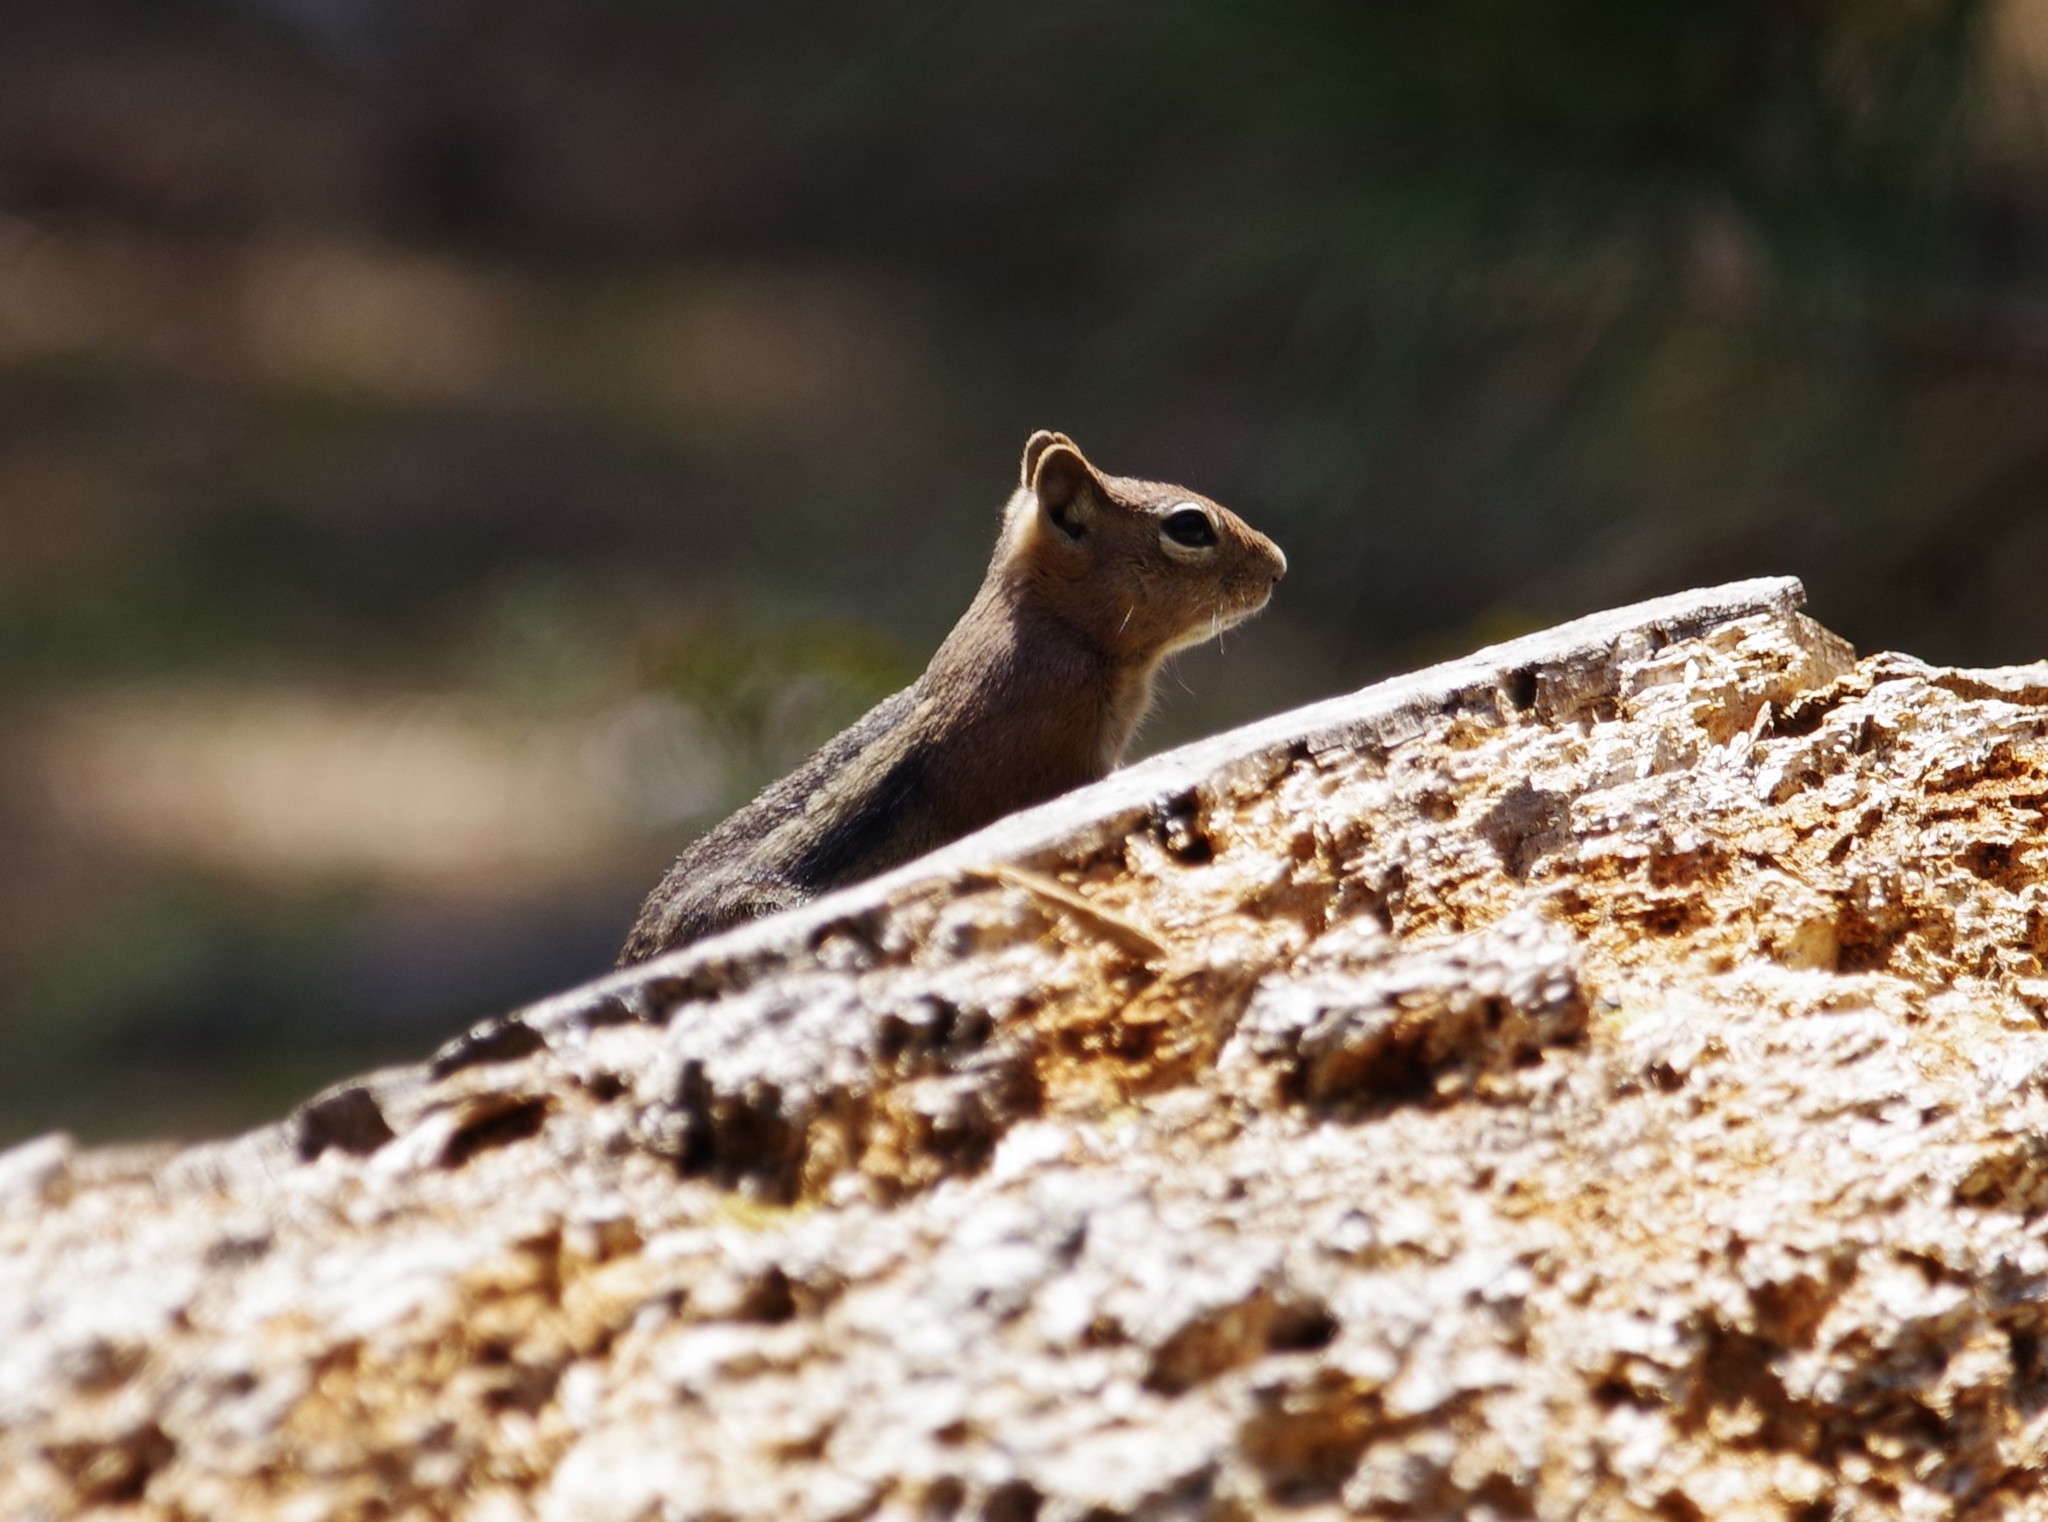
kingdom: Animalia
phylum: Chordata
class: Mammalia
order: Rodentia
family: Sciuridae
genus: Callospermophilus
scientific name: Callospermophilus lateralis
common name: Golden-mantled ground squirrel
